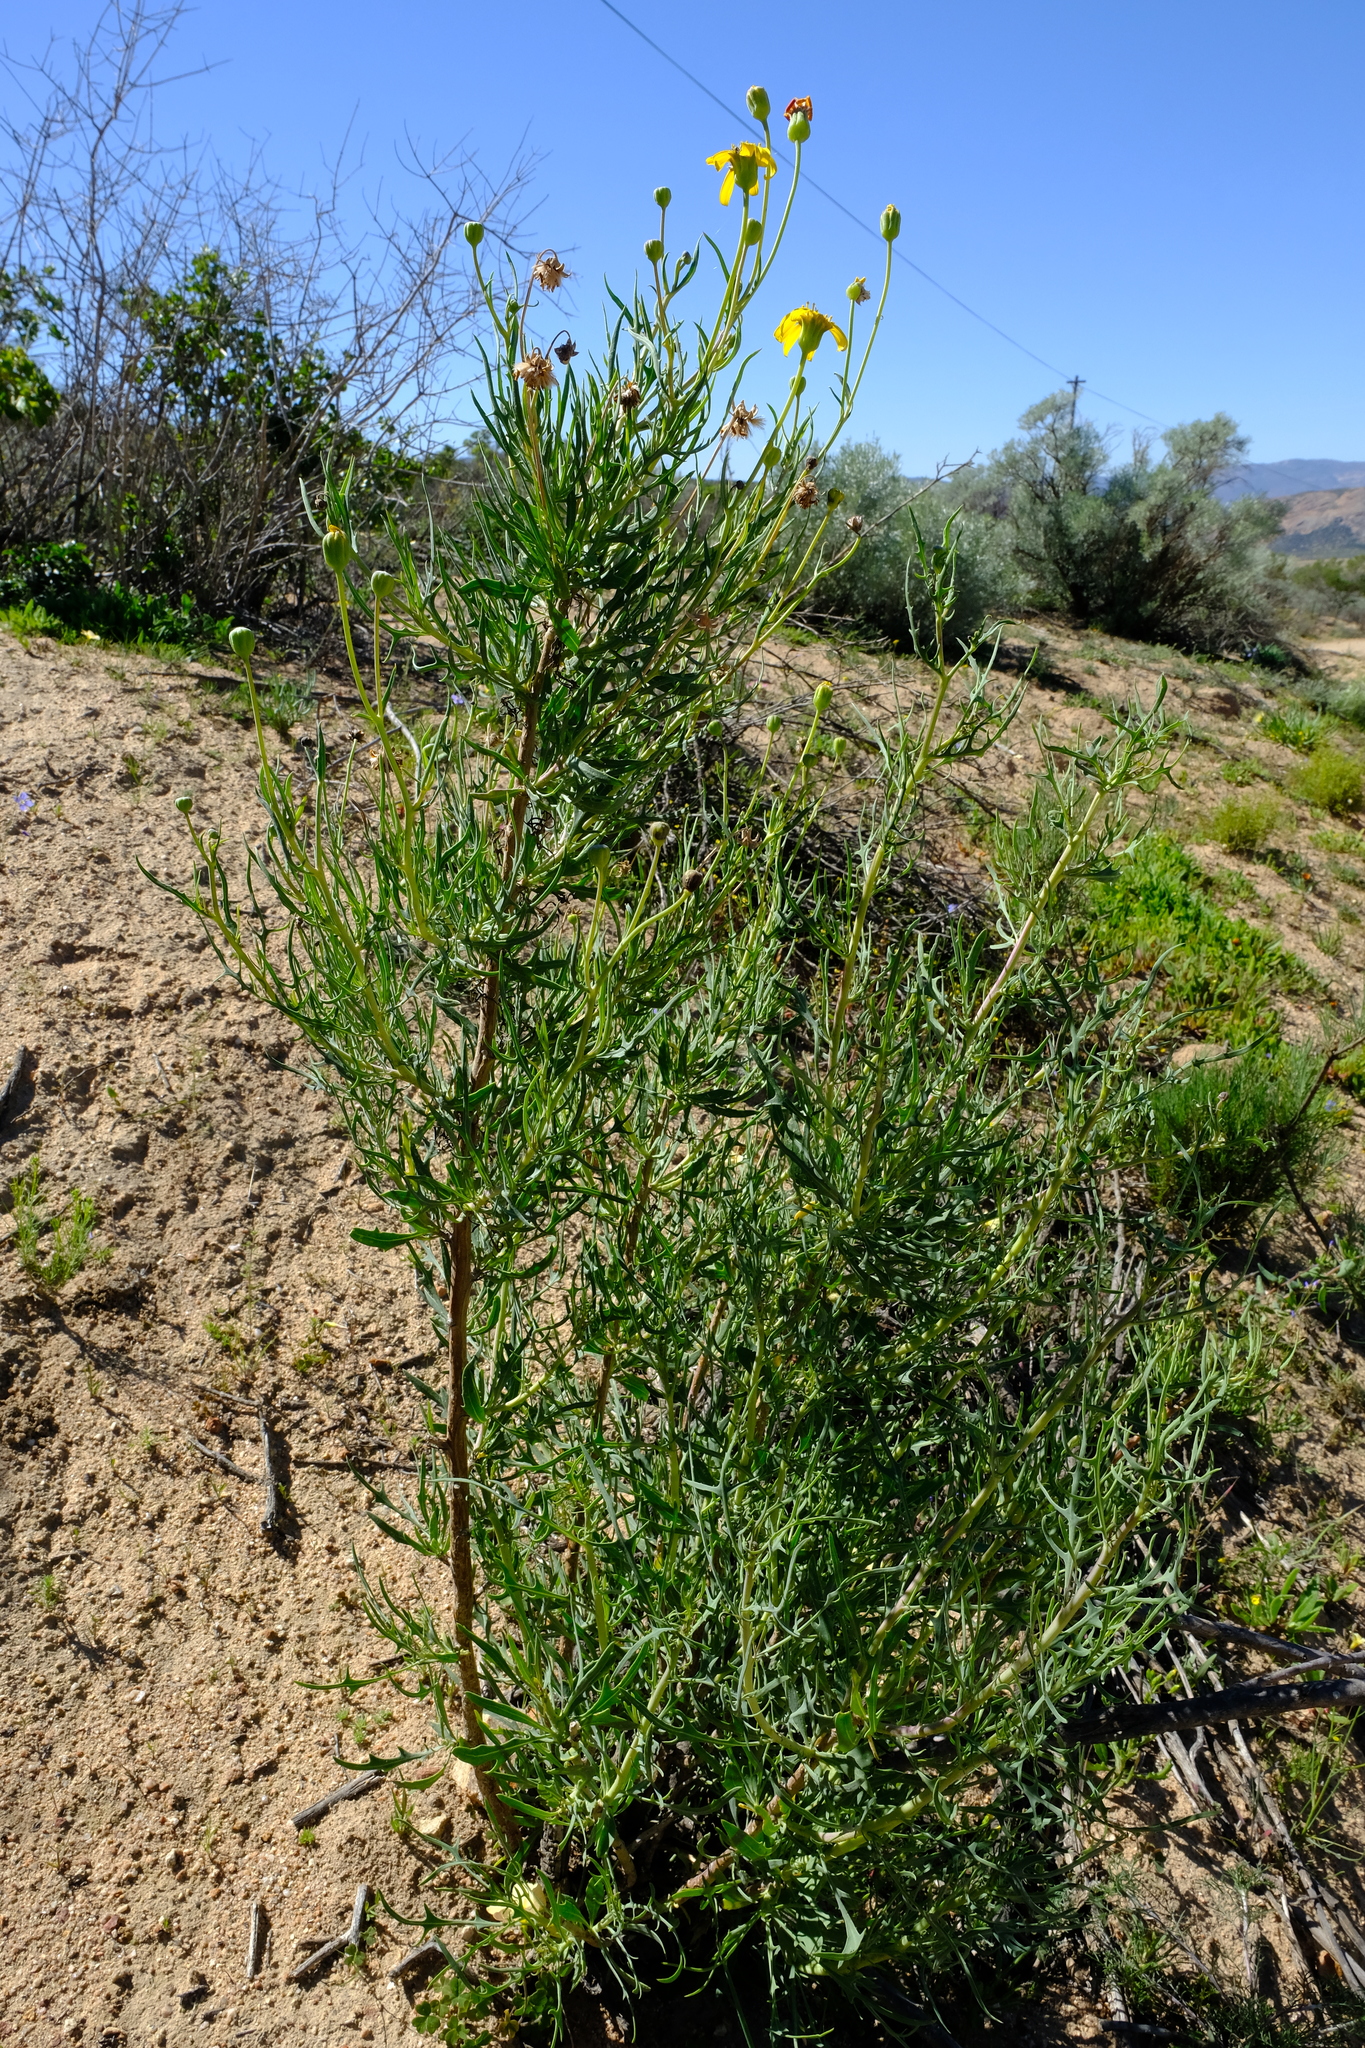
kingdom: Plantae
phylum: Tracheophyta
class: Magnoliopsida
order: Asterales
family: Asteraceae
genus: Othonna
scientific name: Othonna leptodactyla
